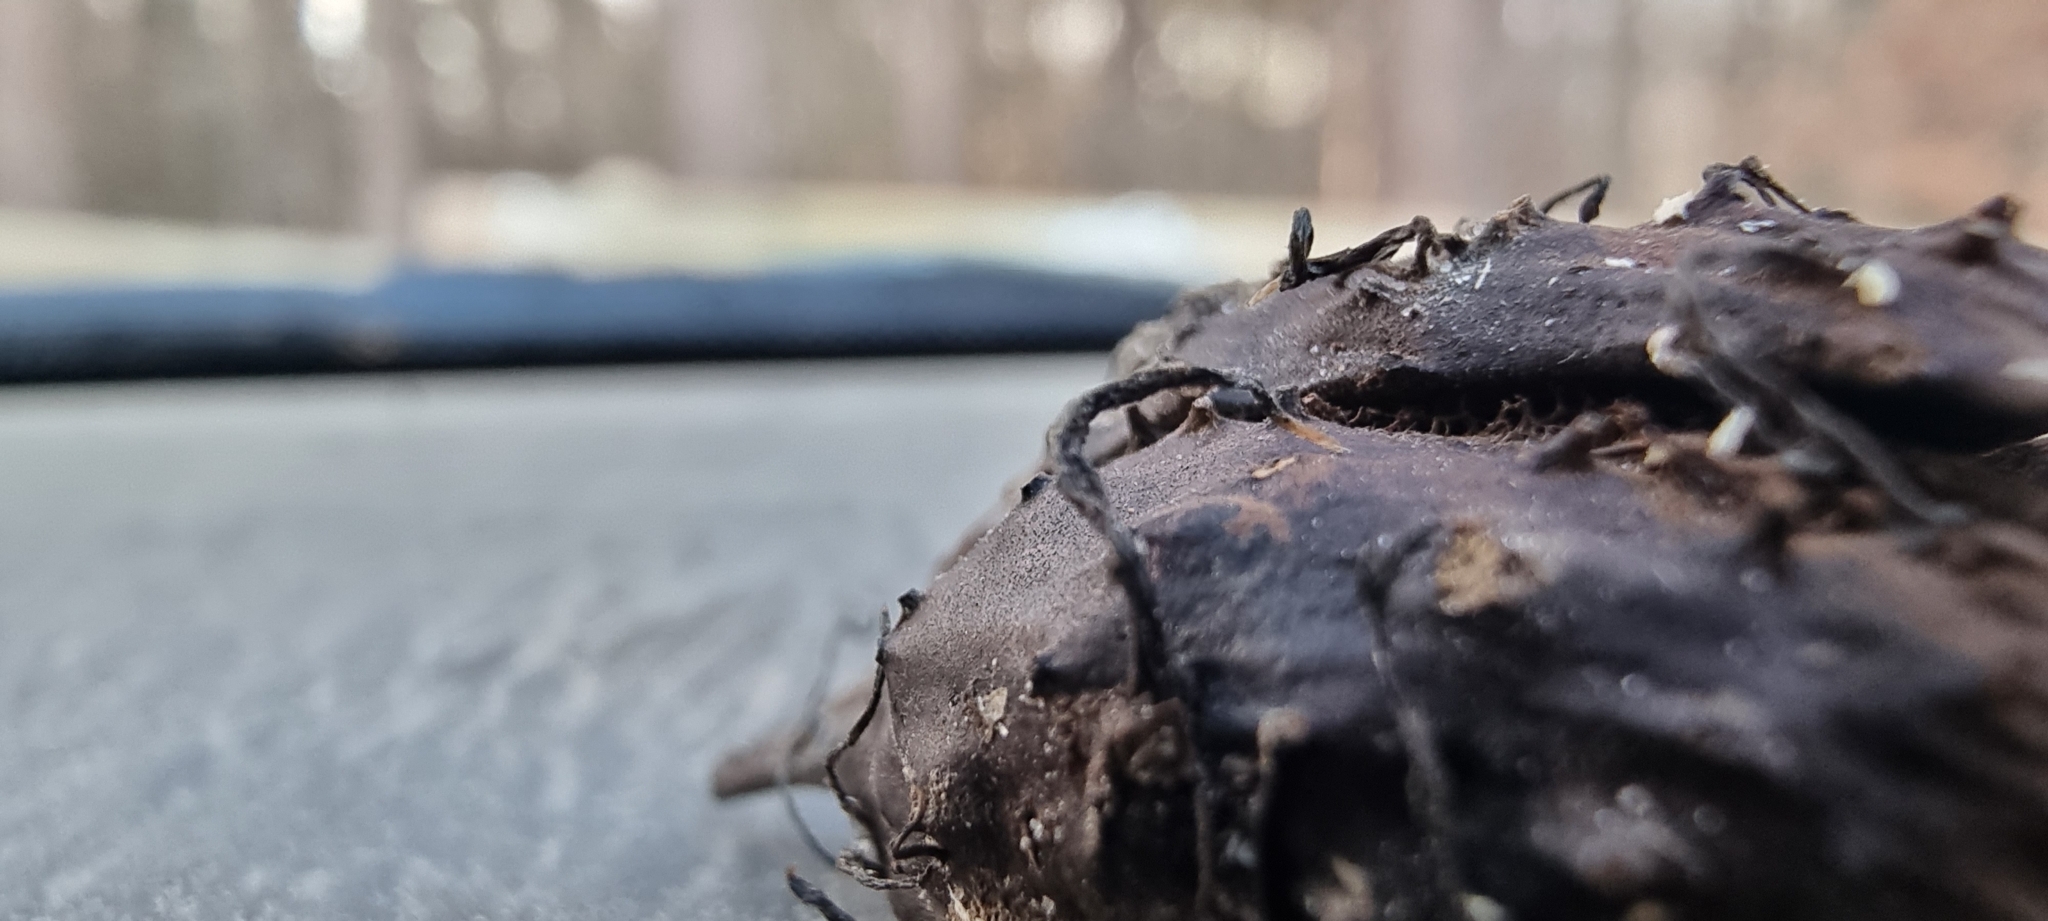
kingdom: Fungi
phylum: Ascomycota
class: Sordariomycetes
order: Xylariales
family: Xylariaceae
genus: Xylaria
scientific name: Xylaria carpophila
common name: Beechmast candlesnuff
